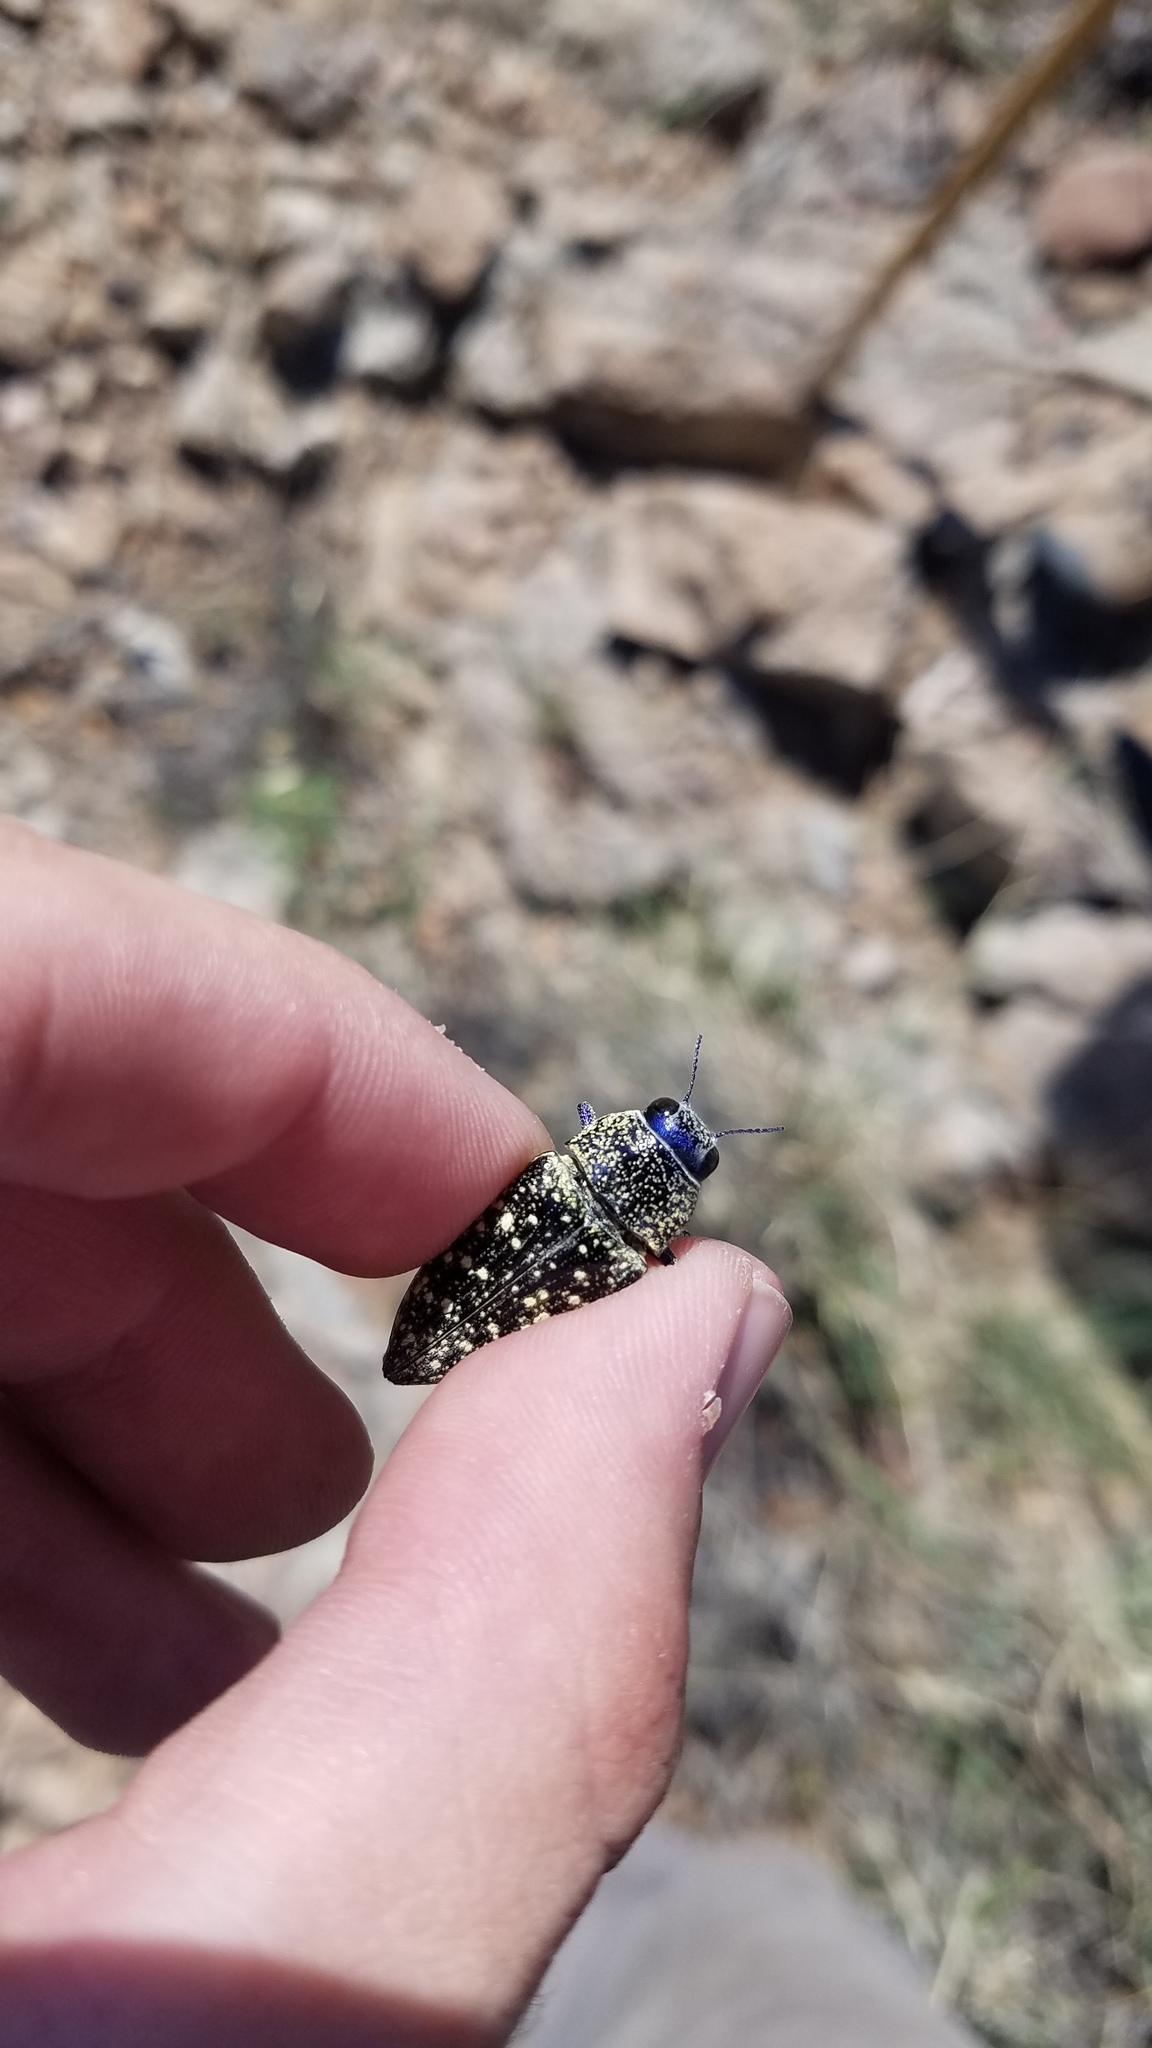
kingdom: Animalia
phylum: Arthropoda
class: Insecta
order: Coleoptera
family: Buprestidae
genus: Lampetis
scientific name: Lampetis webbii
